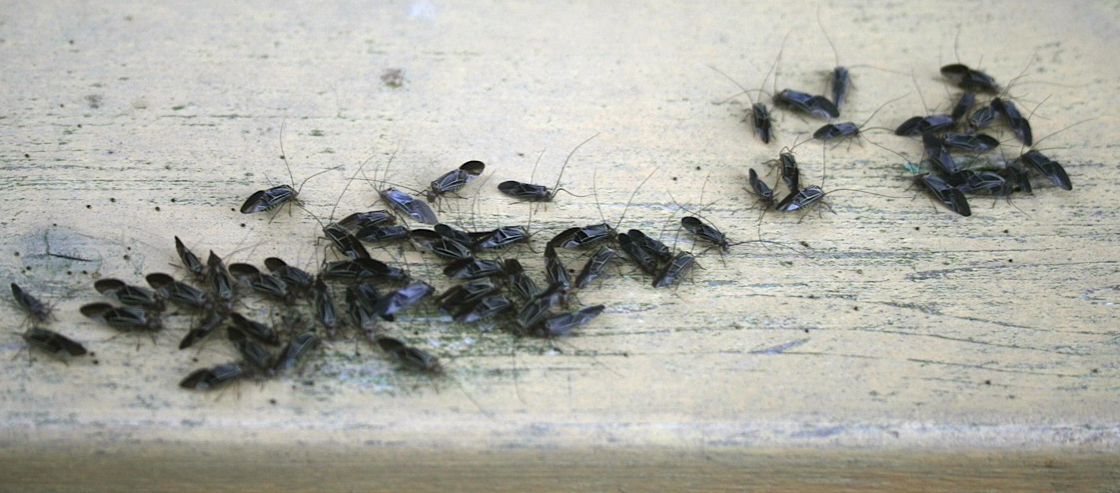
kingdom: Animalia
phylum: Arthropoda
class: Insecta
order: Psocodea
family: Psocidae
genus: Cerastipsocus
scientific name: Cerastipsocus venosus
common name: Tree cattle
